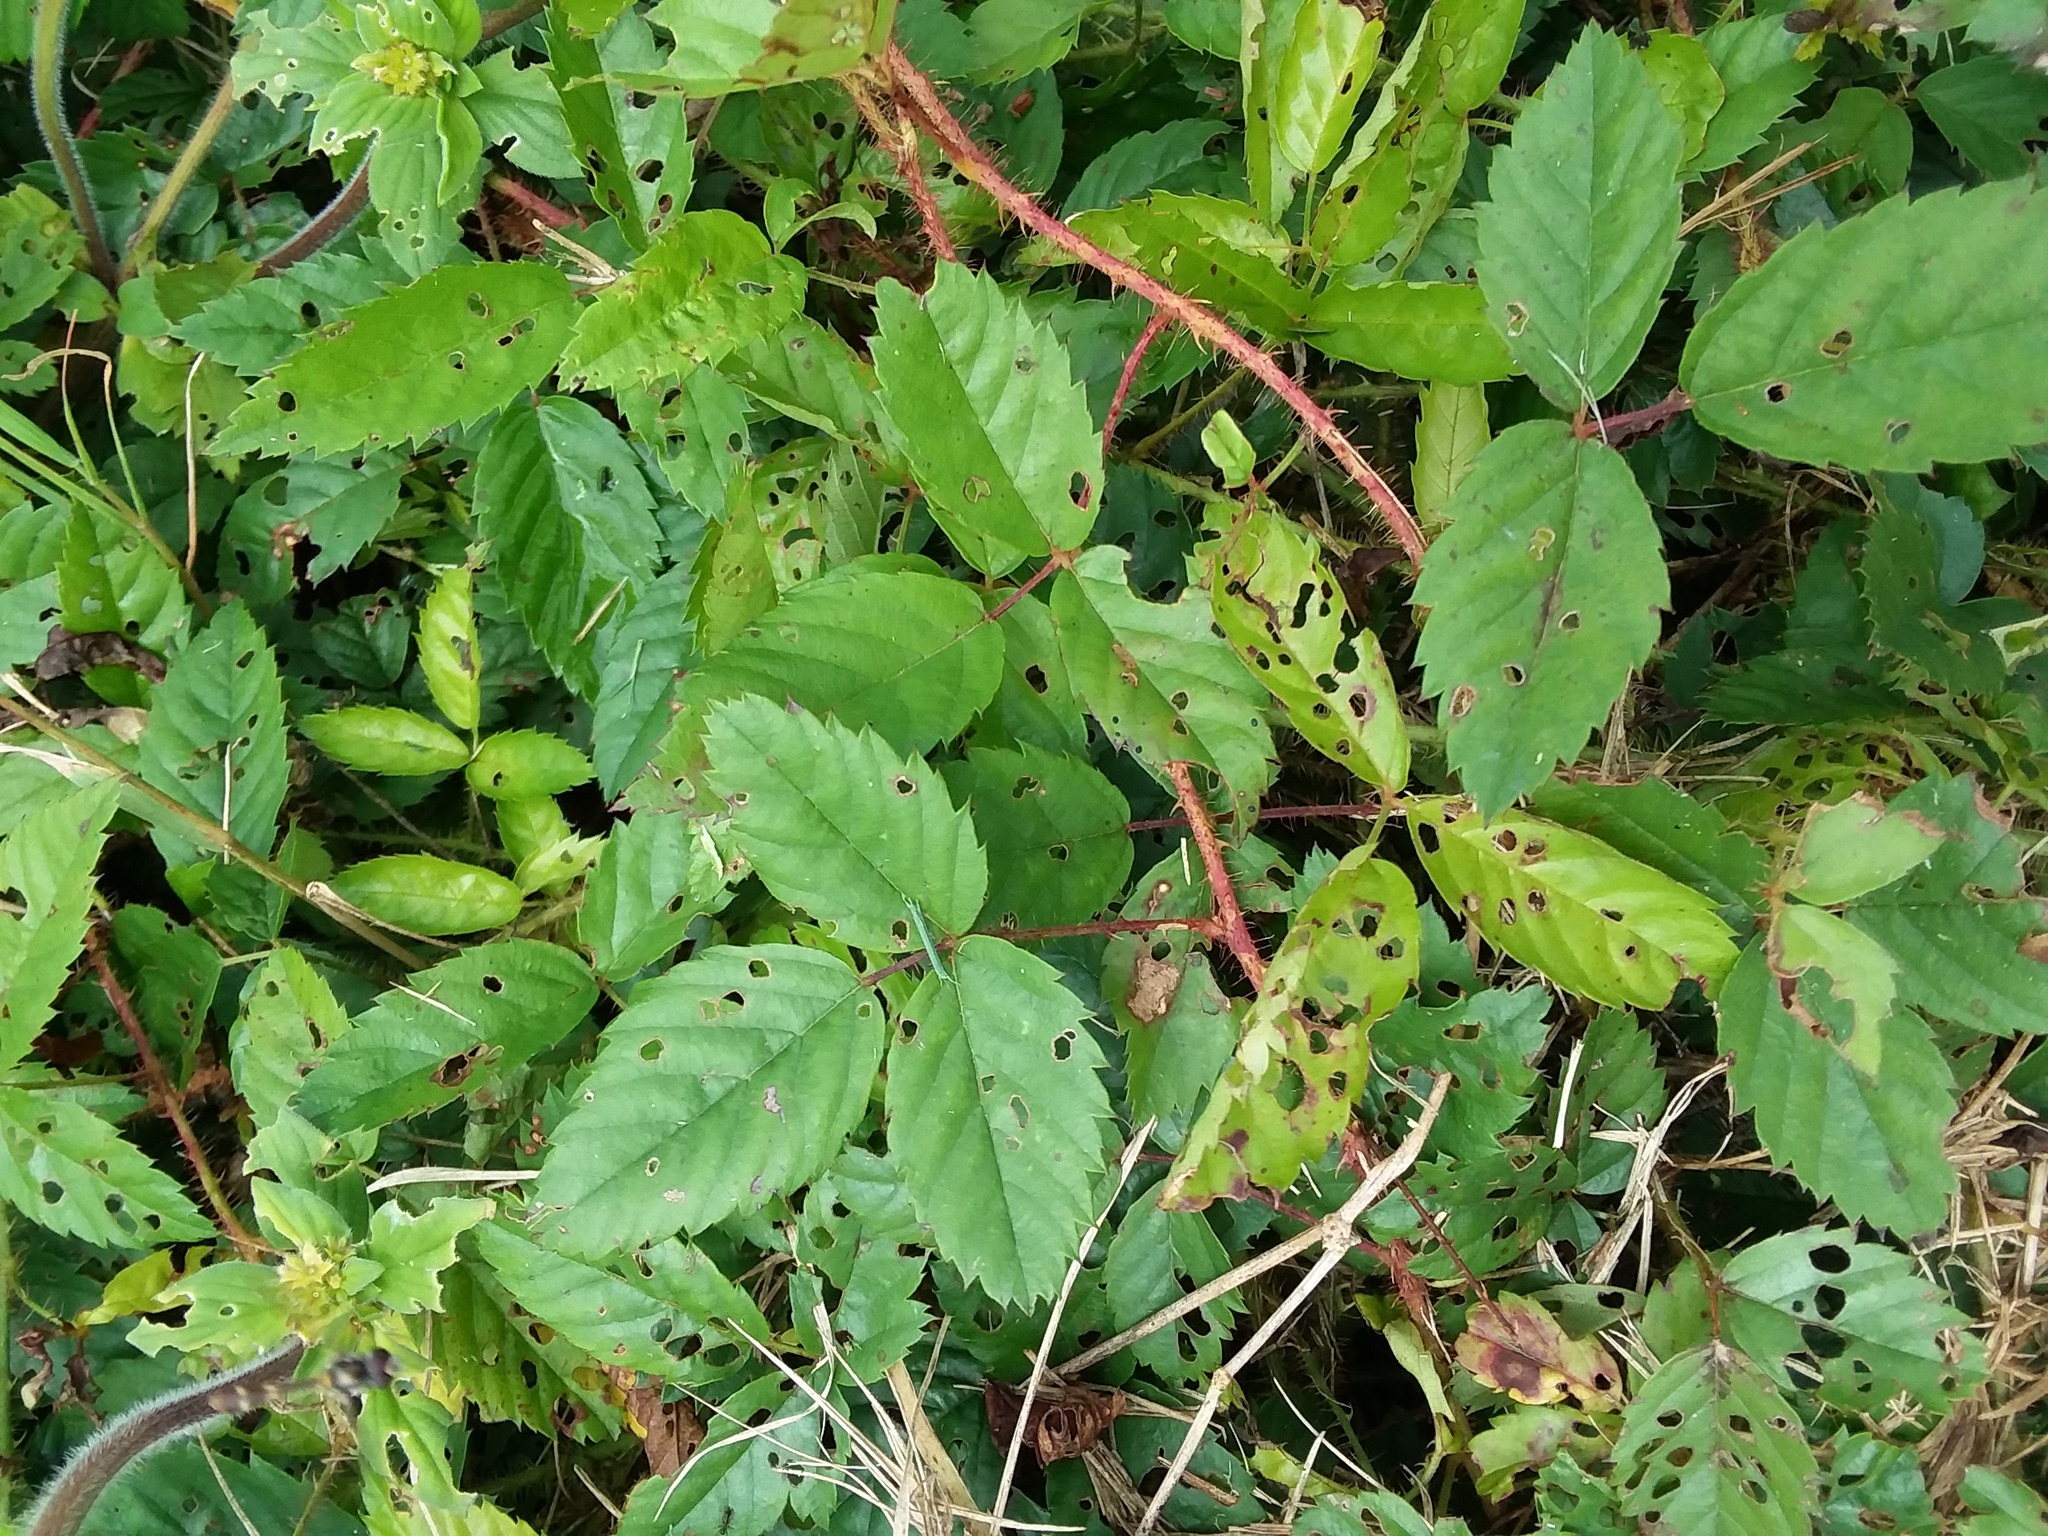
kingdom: Plantae
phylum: Tracheophyta
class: Magnoliopsida
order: Rosales
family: Rosaceae
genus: Rubus
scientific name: Rubus trivialis
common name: Southern dewberry
